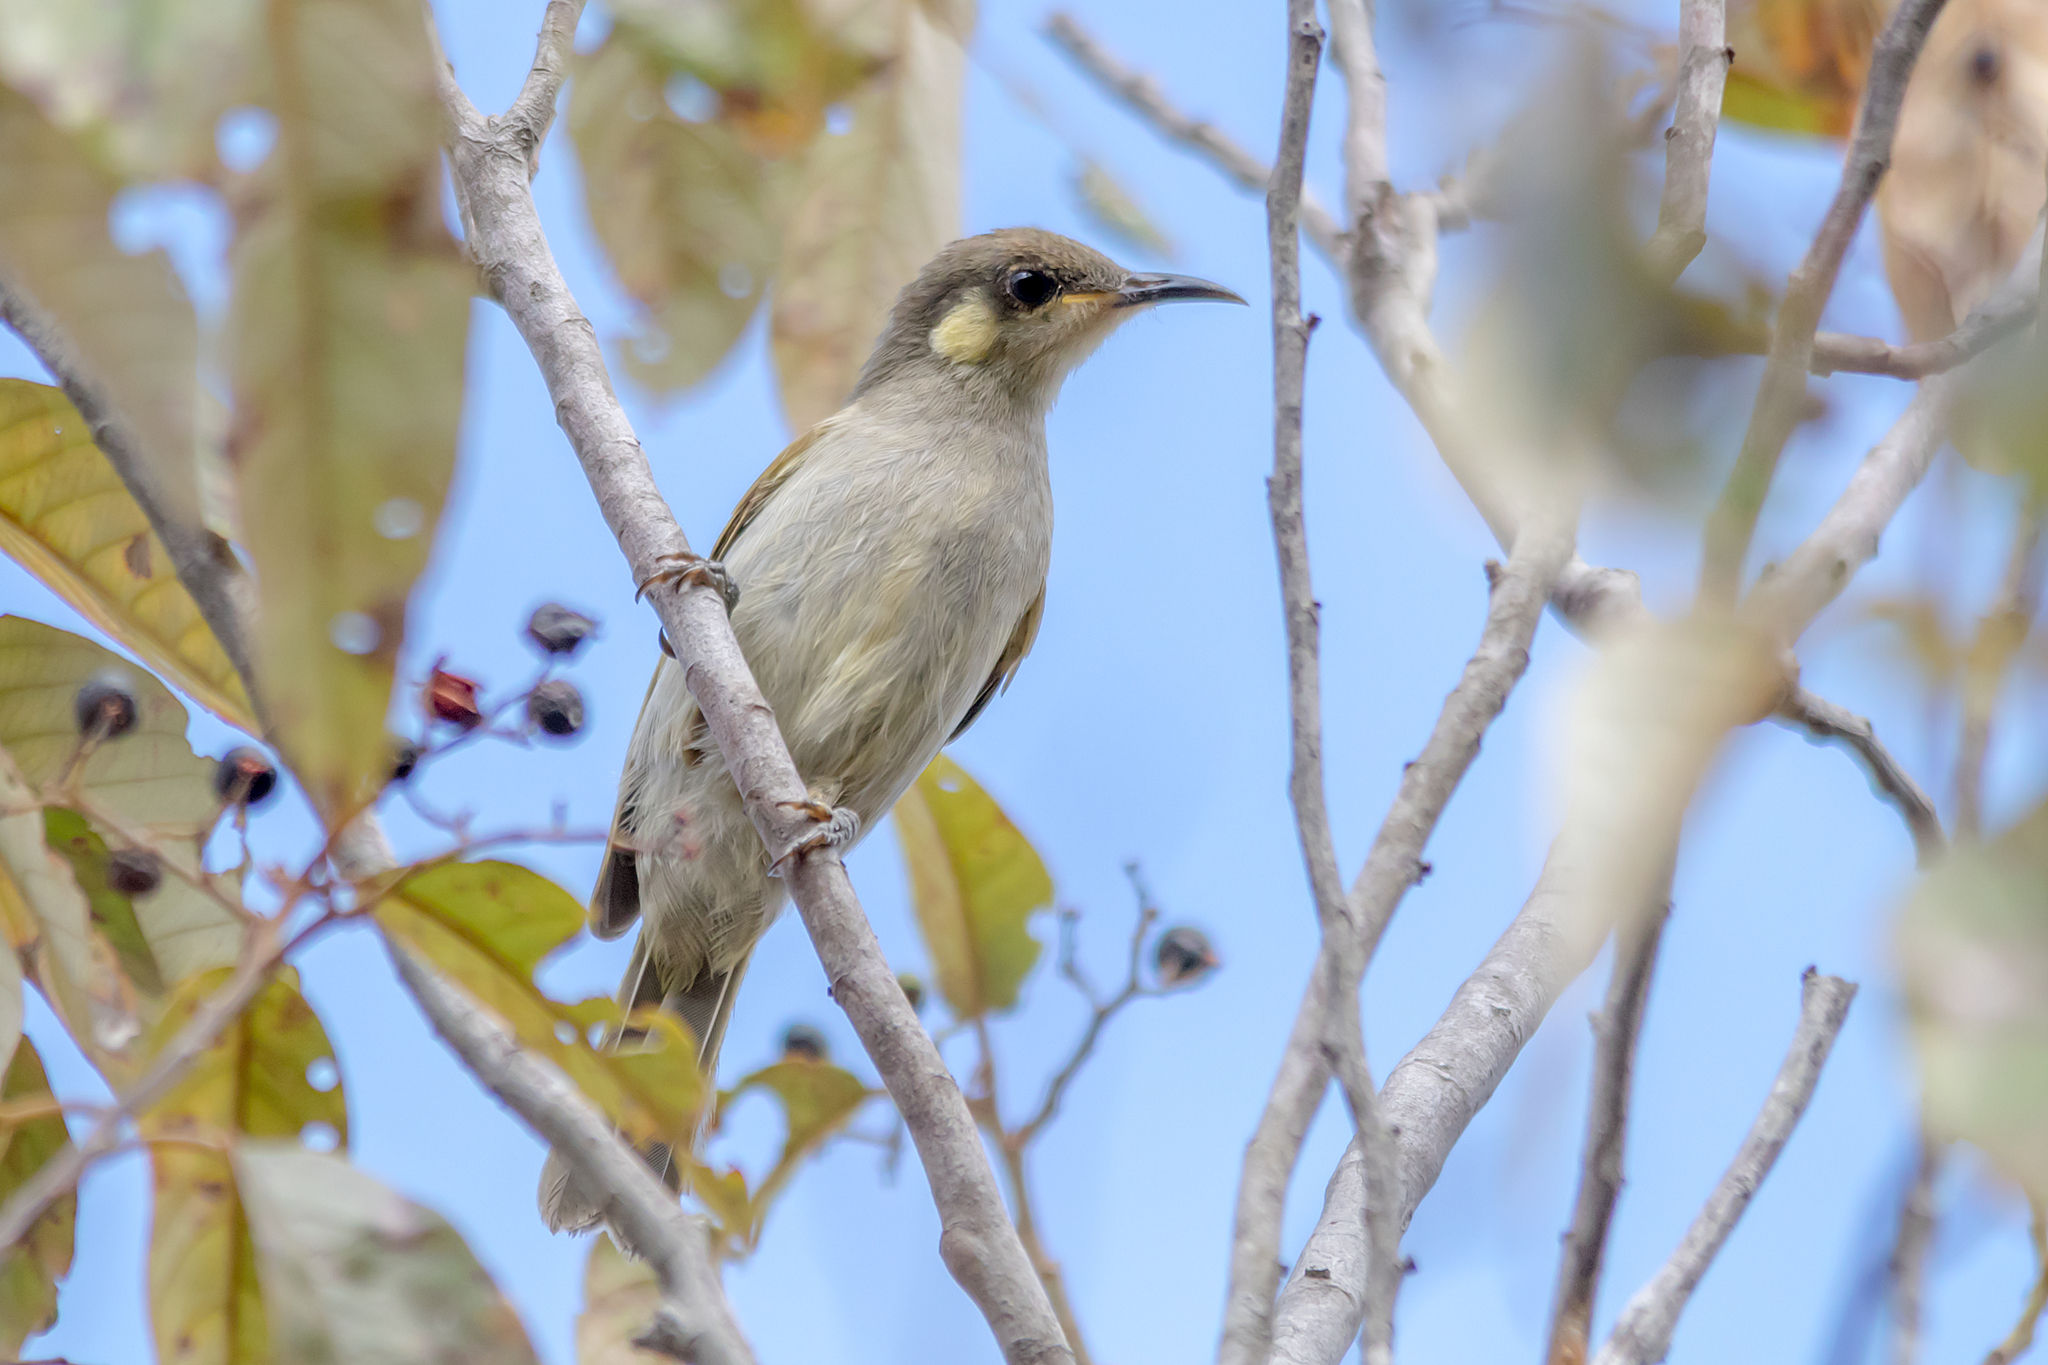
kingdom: Animalia
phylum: Chordata
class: Aves
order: Passeriformes
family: Meliphagidae
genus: Microptilotis
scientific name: Microptilotis gracilis
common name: Graceful honeyeater
